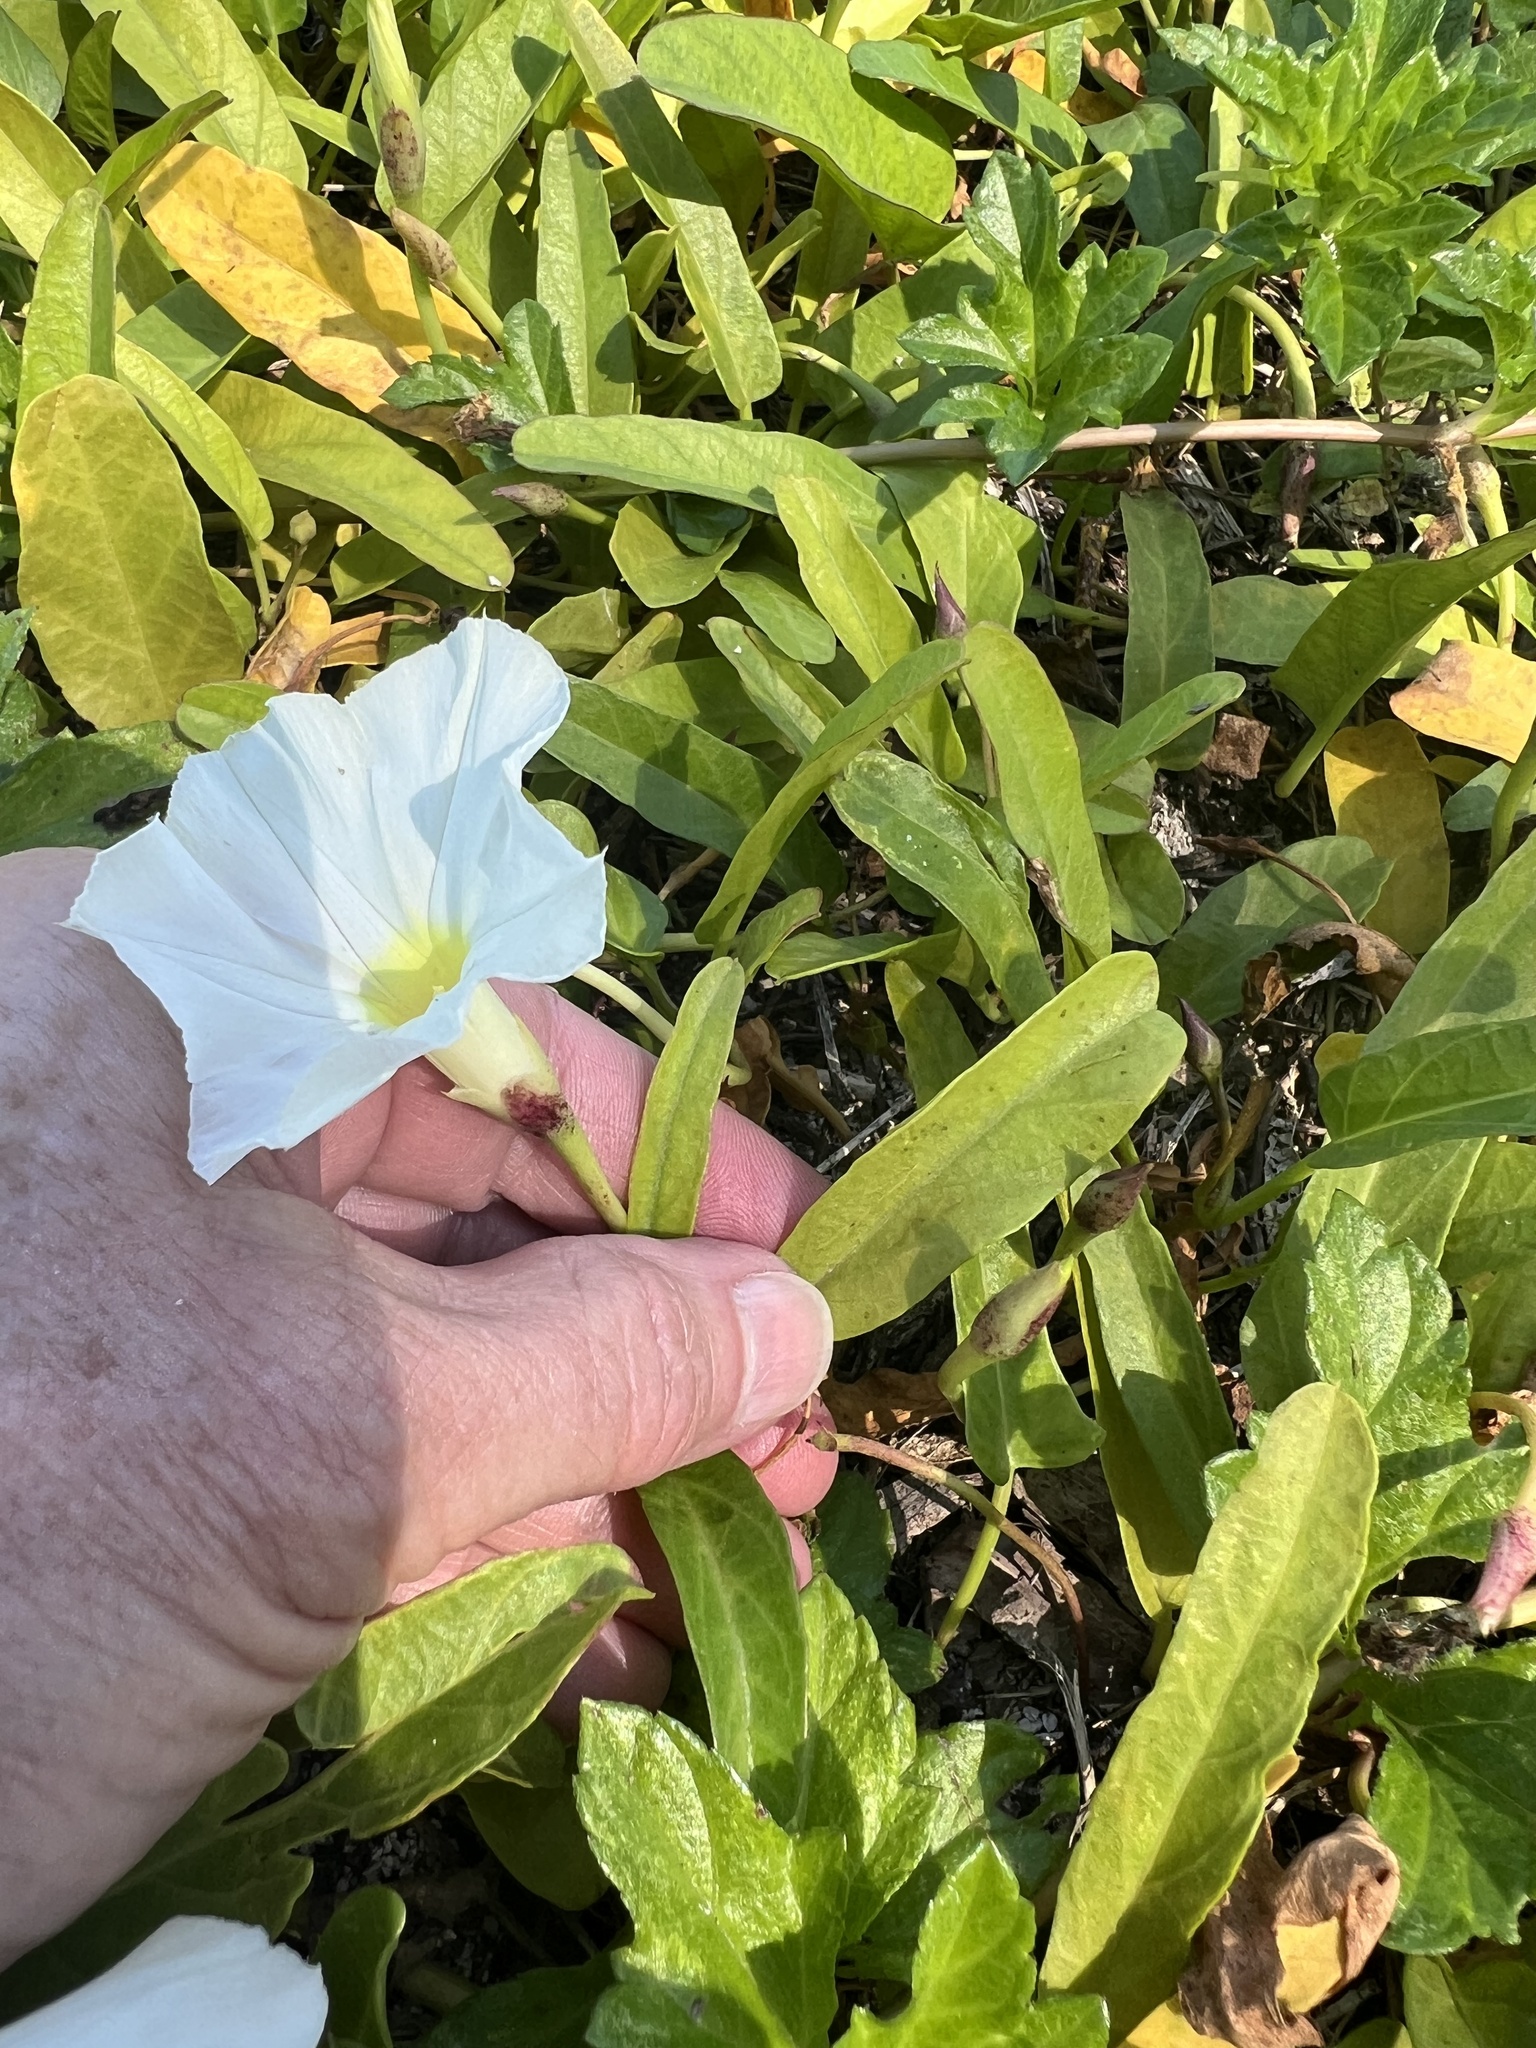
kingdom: Plantae
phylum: Tracheophyta
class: Magnoliopsida
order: Solanales
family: Convolvulaceae
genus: Ipomoea
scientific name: Ipomoea imperati
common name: Fiddle-leaf morning-glory
